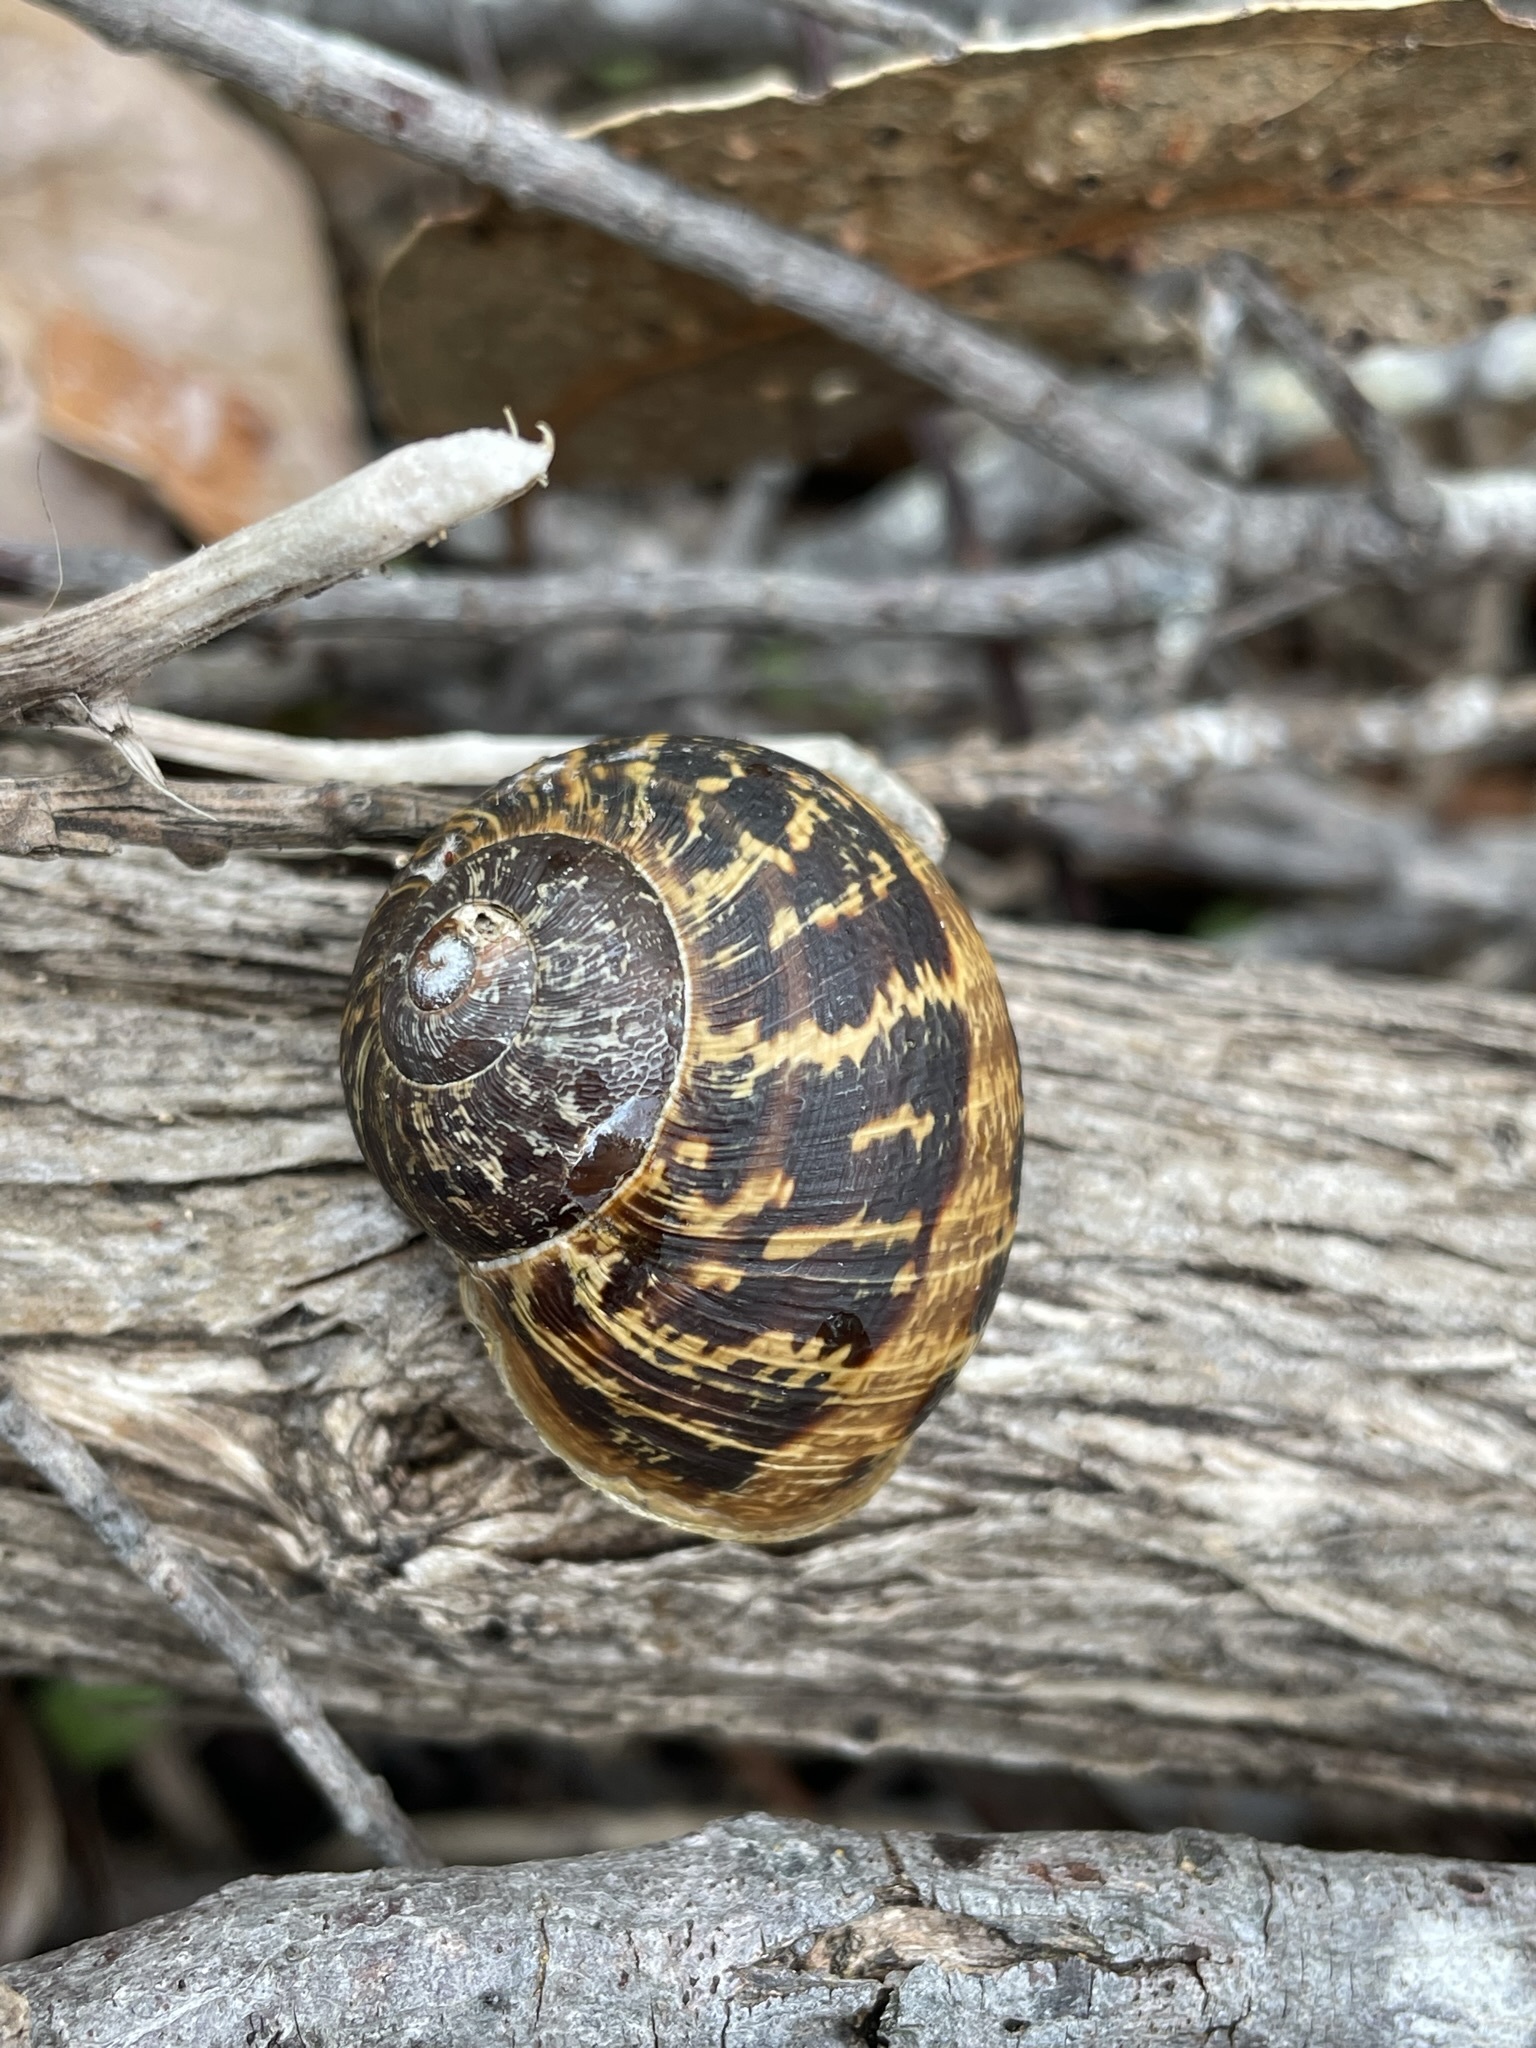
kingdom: Animalia
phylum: Mollusca
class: Gastropoda
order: Stylommatophora
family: Helicidae
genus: Cornu
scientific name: Cornu aspersum
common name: Brown garden snail
